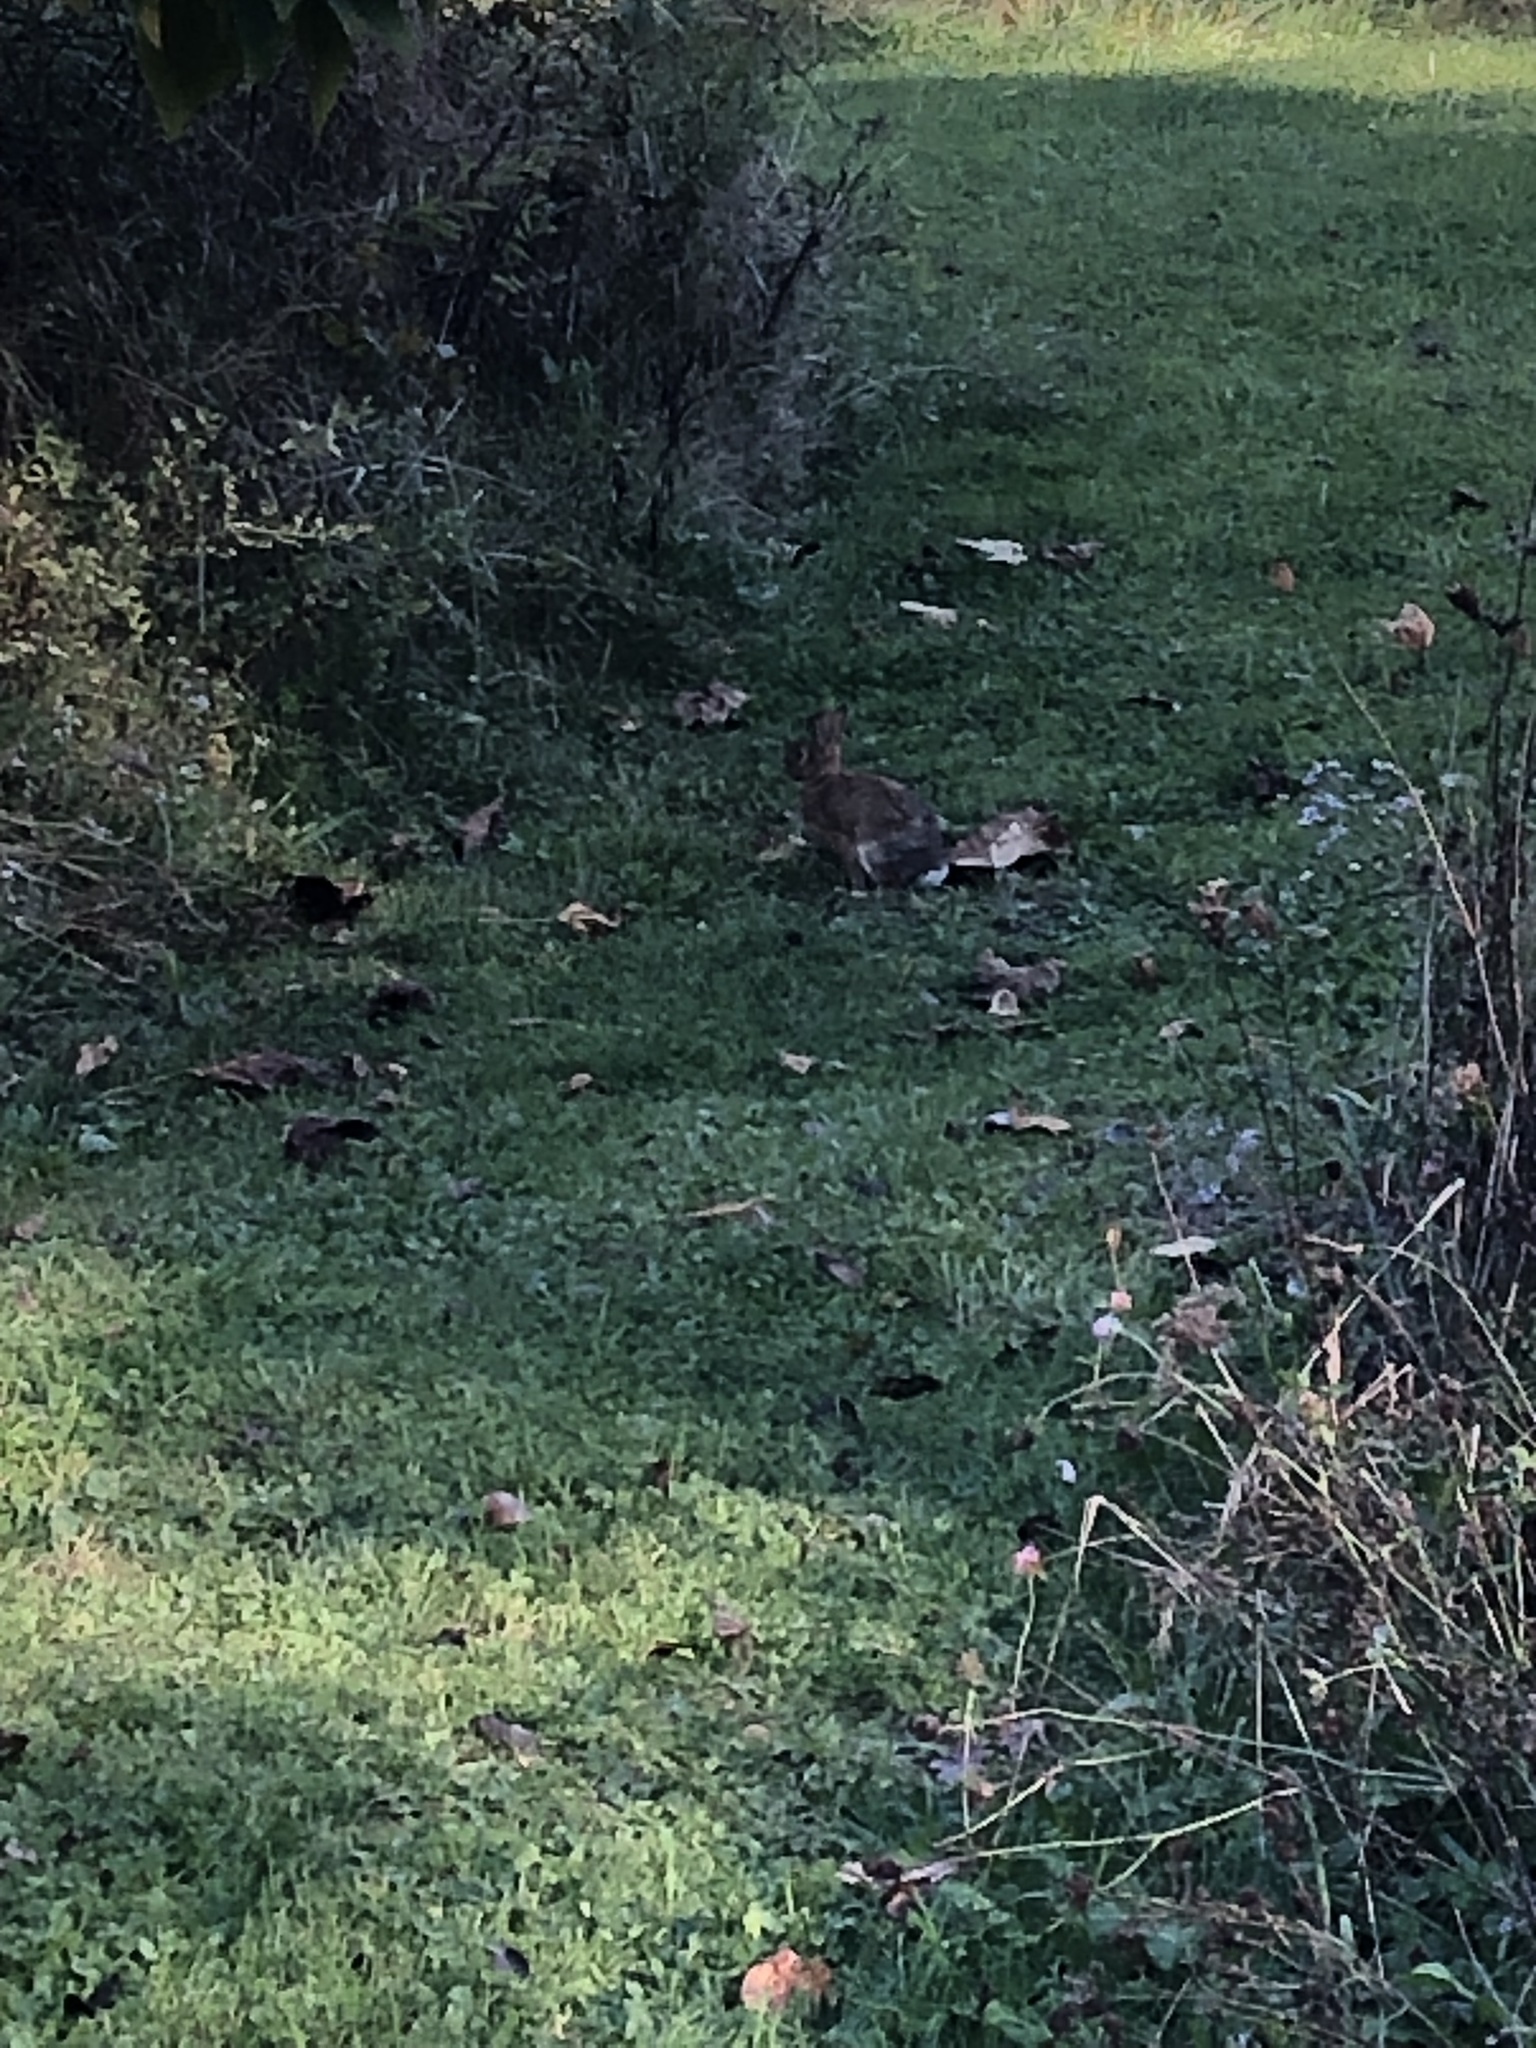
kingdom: Animalia
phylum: Chordata
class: Mammalia
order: Lagomorpha
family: Leporidae
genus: Sylvilagus
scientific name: Sylvilagus floridanus
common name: Eastern cottontail
